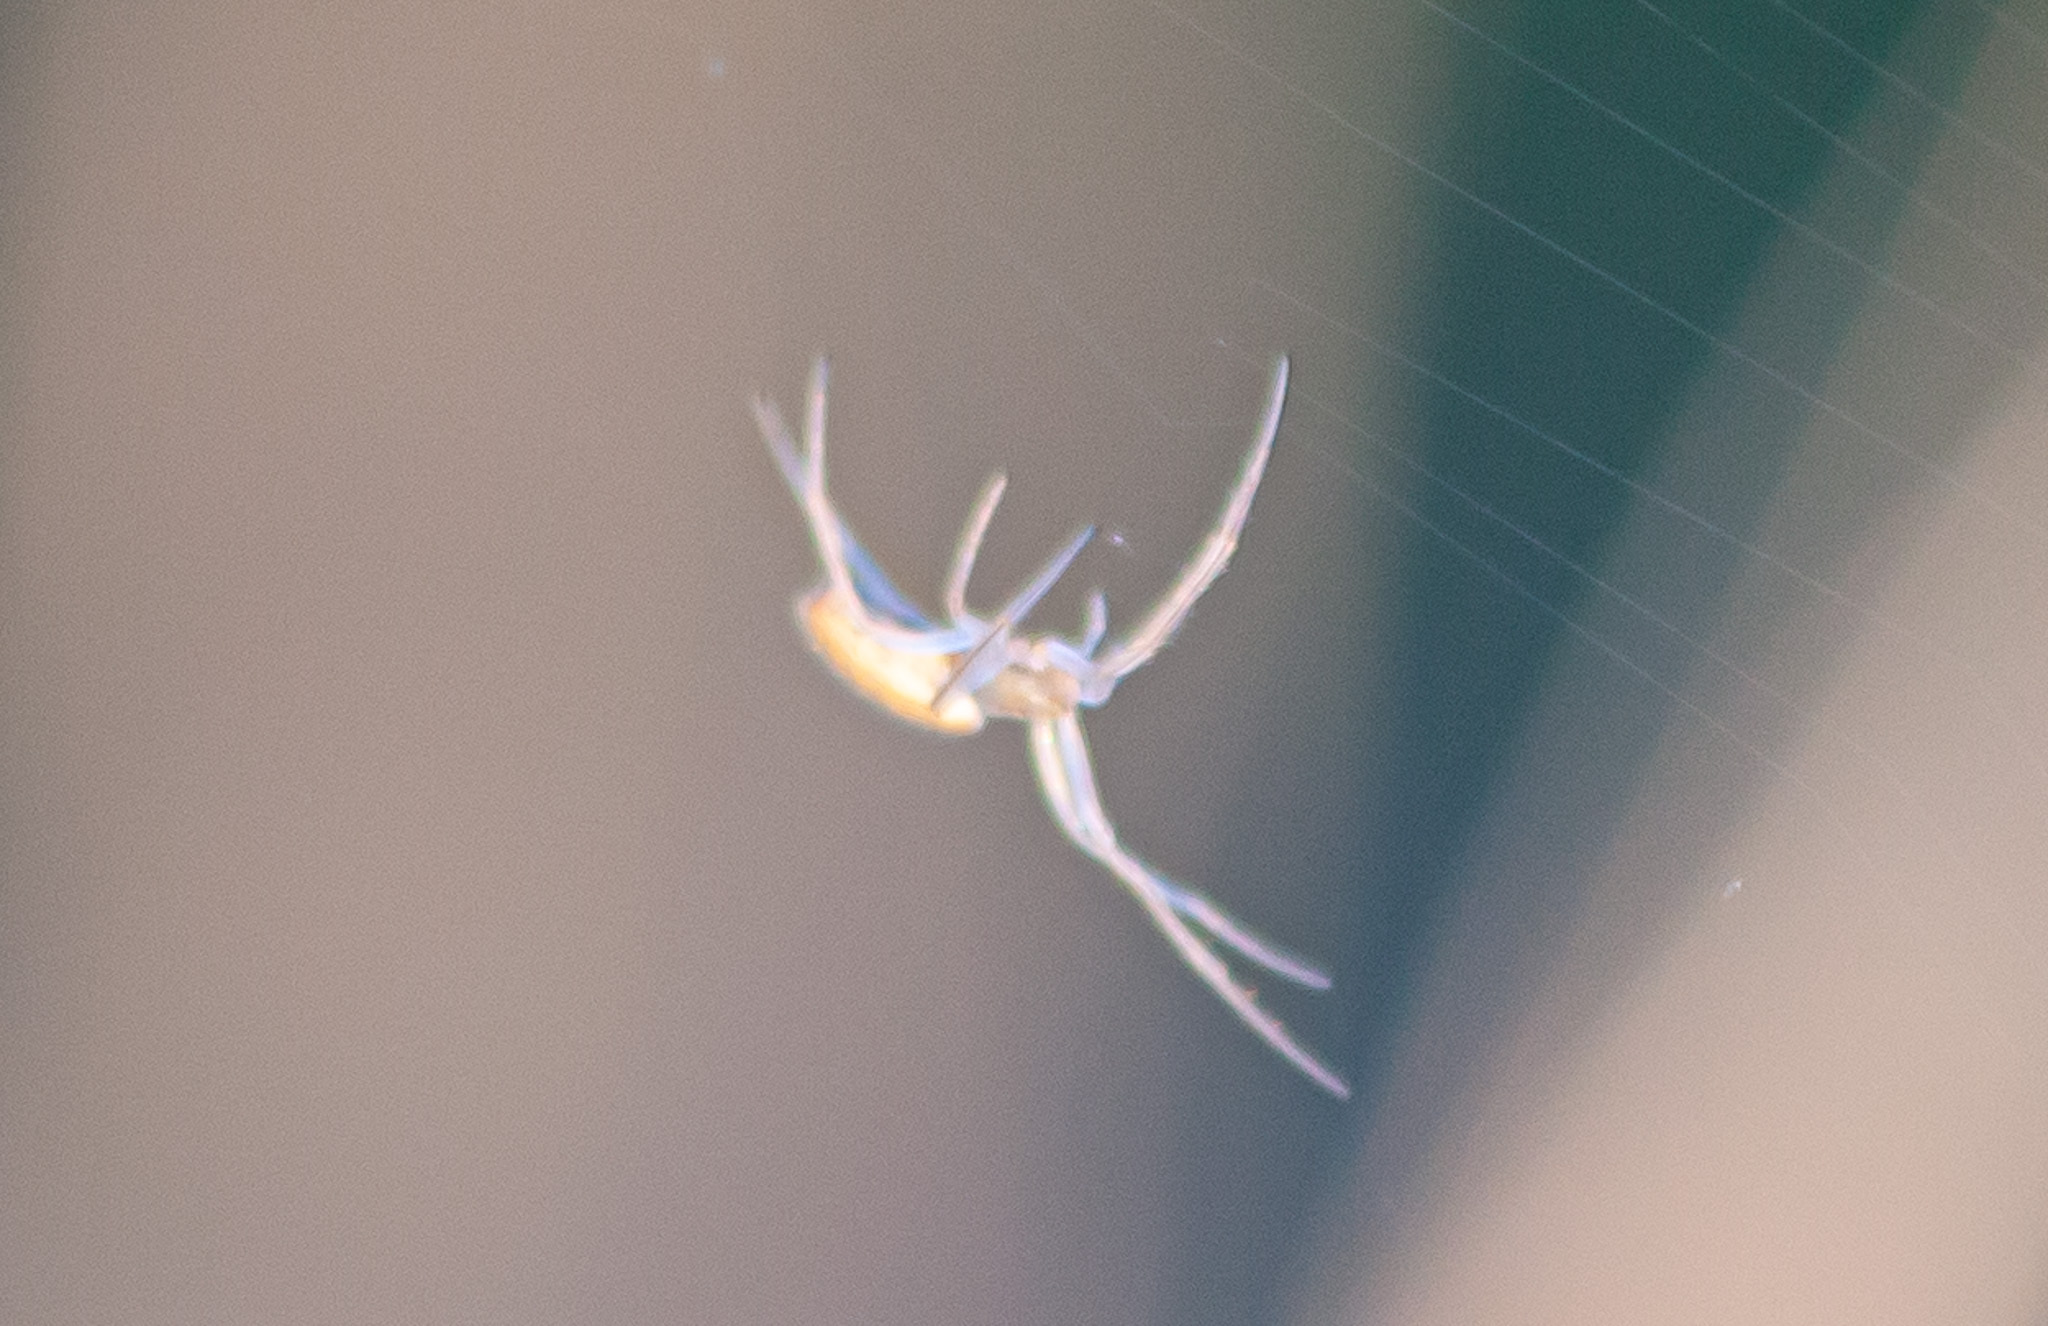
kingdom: Animalia
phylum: Arthropoda
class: Arachnida
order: Araneae
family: Araneidae
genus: Larinia
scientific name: Larinia directa
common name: Orb weavers
